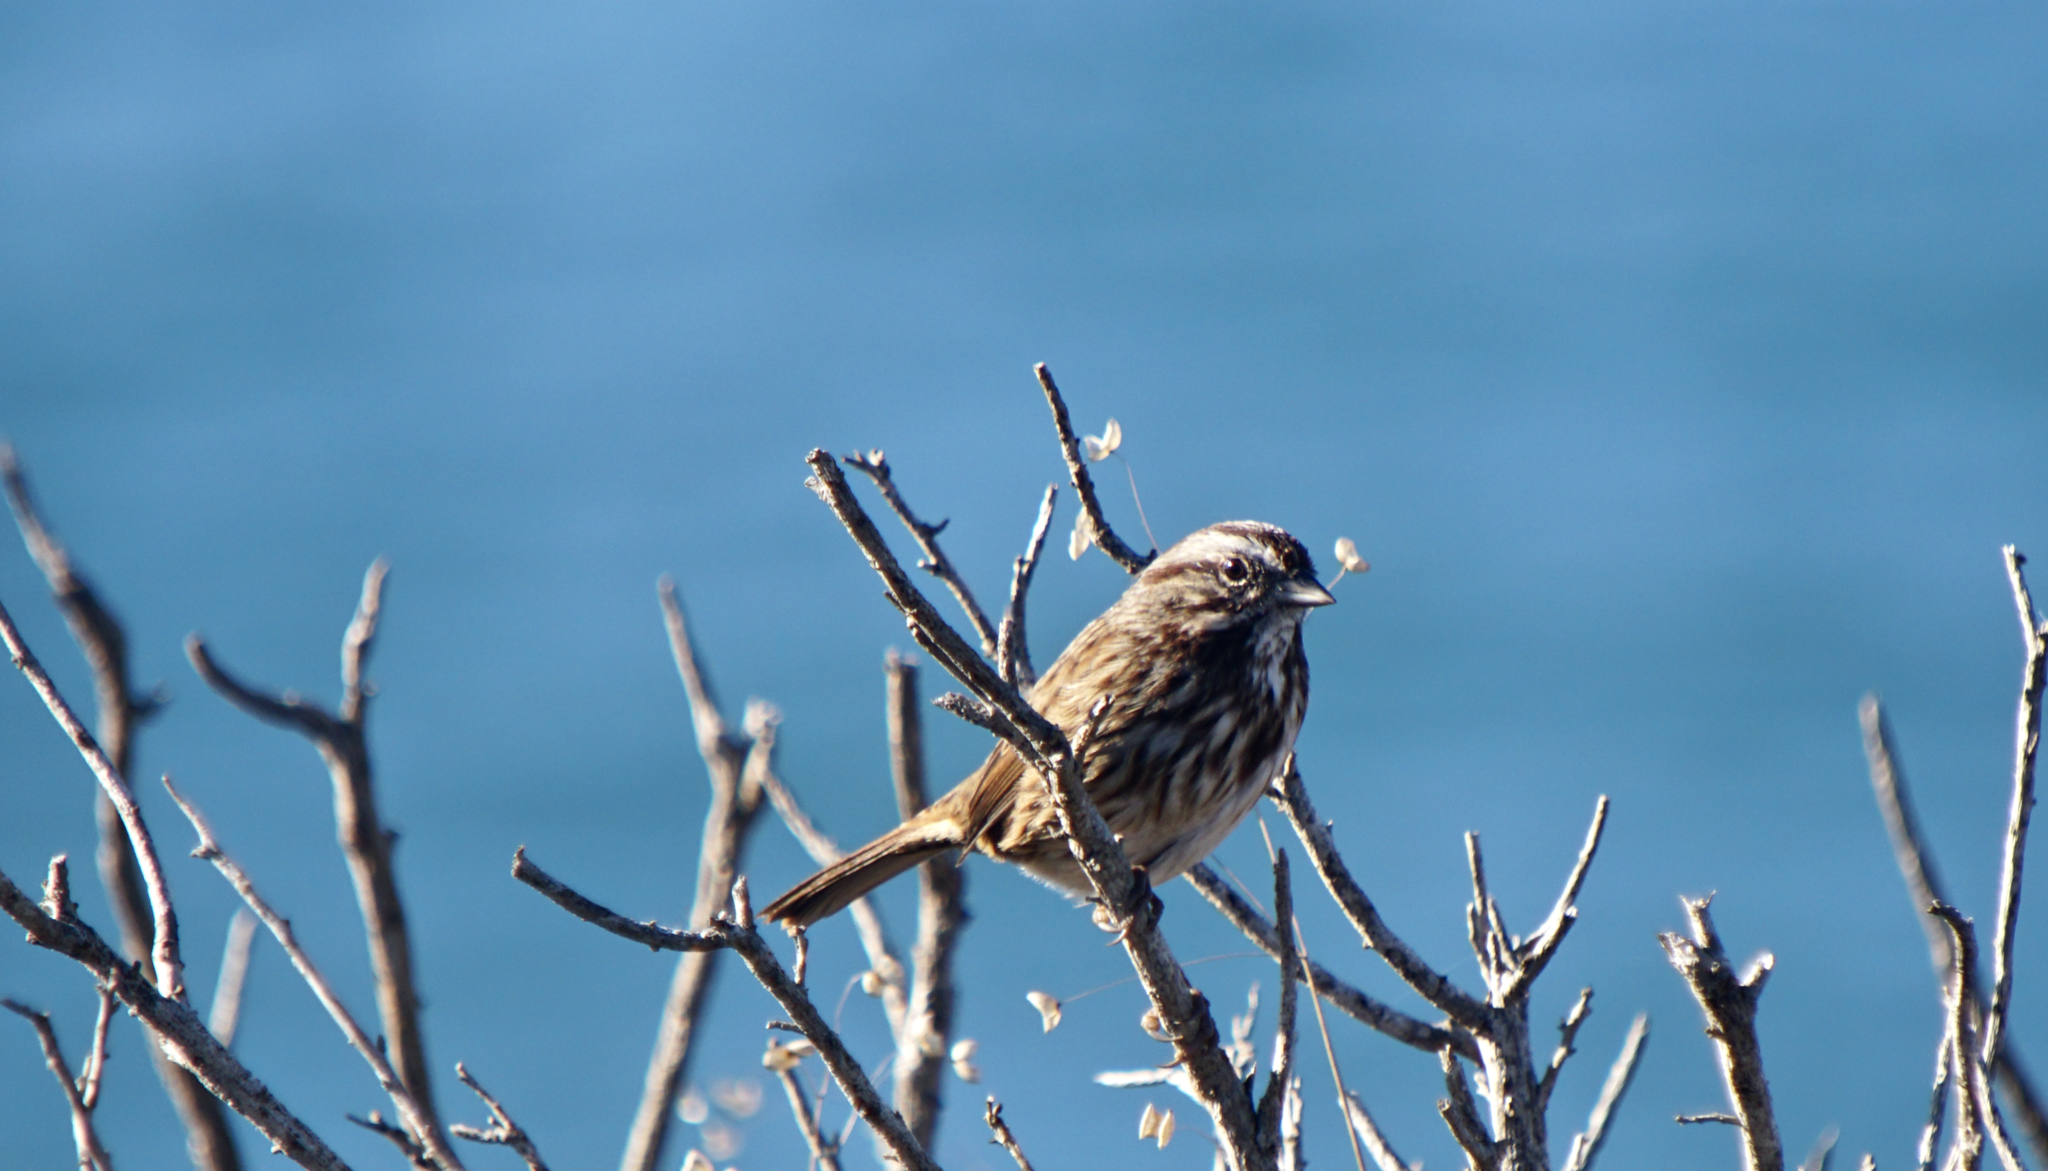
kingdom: Animalia
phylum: Chordata
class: Aves
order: Passeriformes
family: Passerellidae
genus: Melospiza
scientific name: Melospiza melodia
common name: Song sparrow
